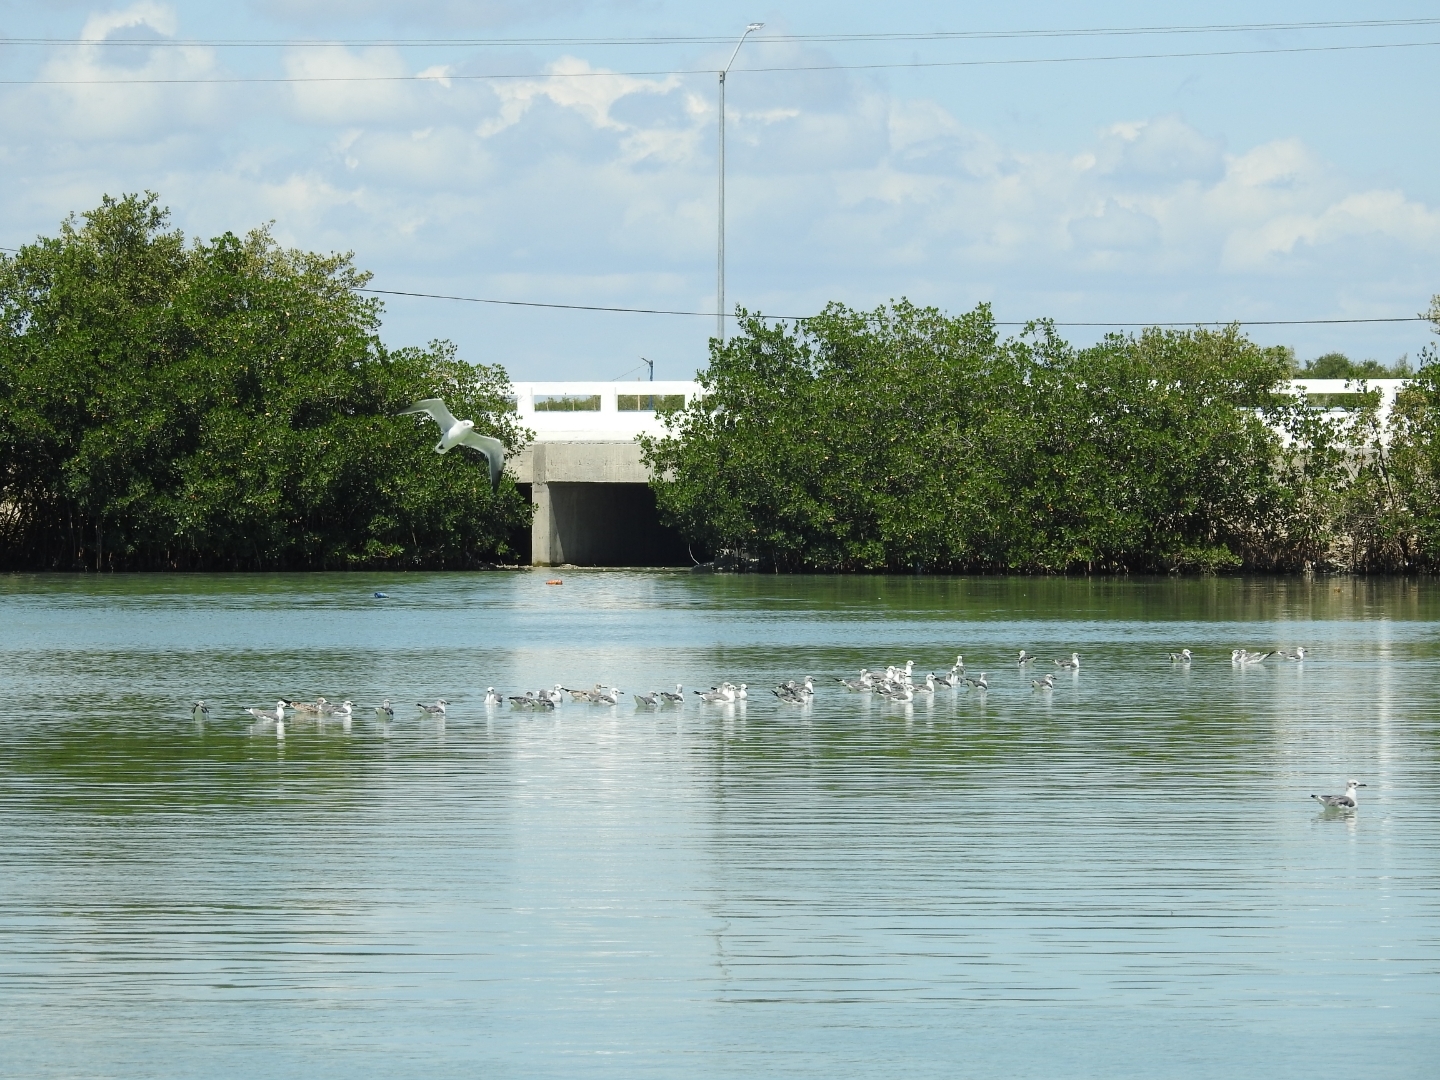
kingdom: Animalia
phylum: Chordata
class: Aves
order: Charadriiformes
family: Laridae
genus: Leucophaeus
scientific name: Leucophaeus atricilla
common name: Laughing gull
